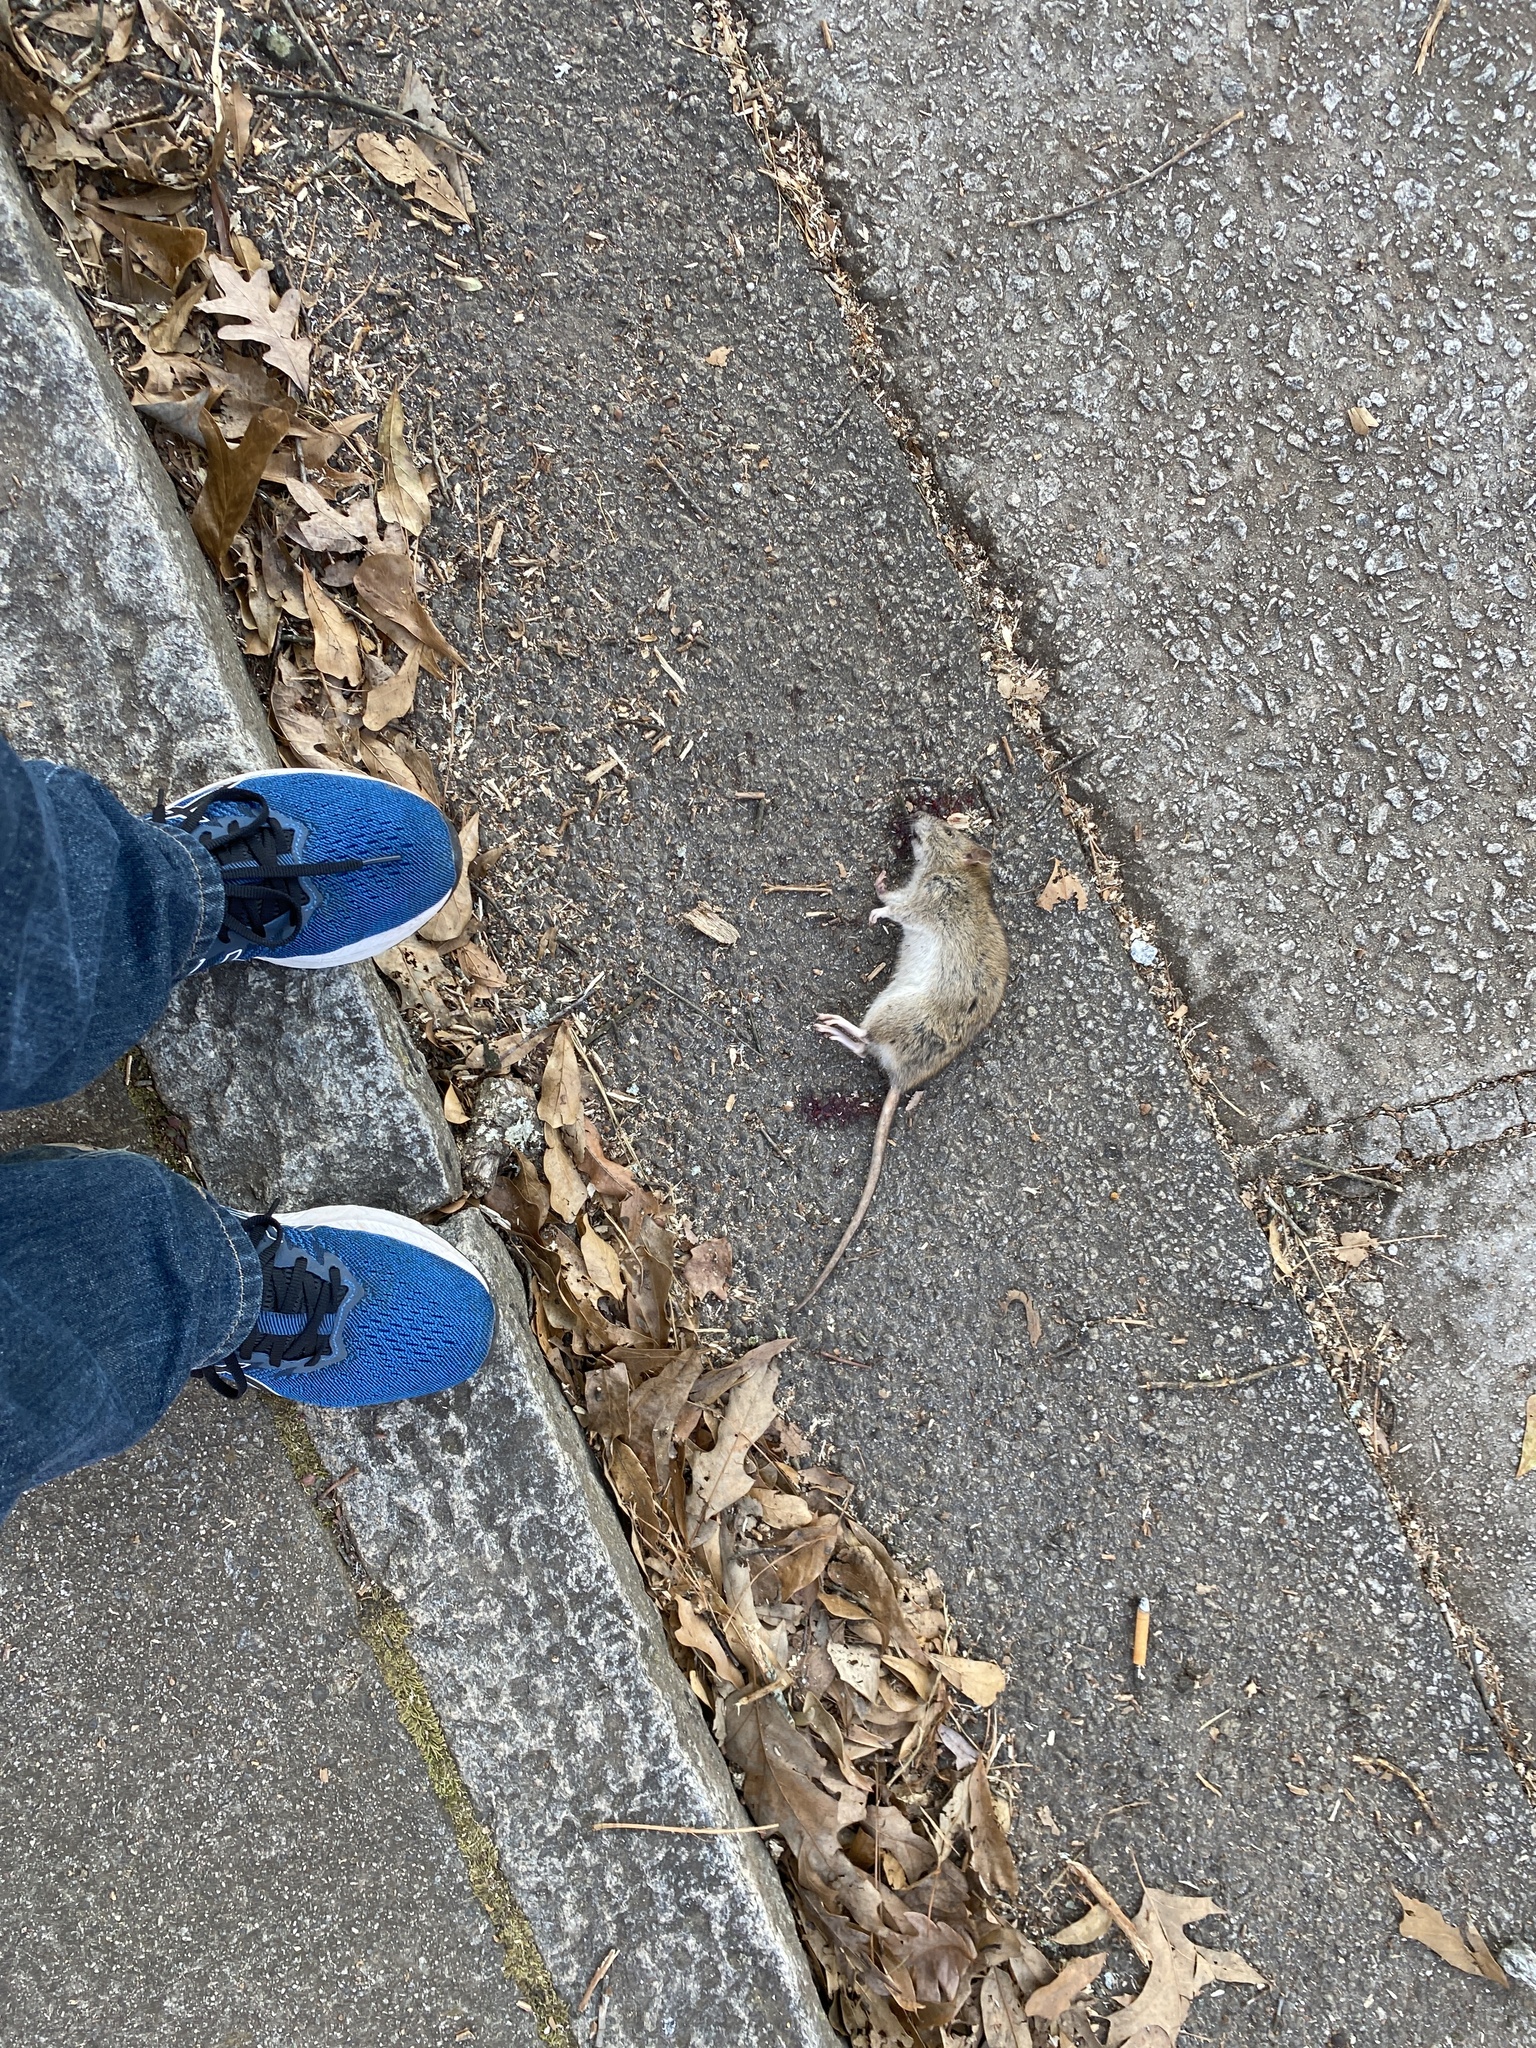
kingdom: Animalia
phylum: Chordata
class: Mammalia
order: Rodentia
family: Muridae
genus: Rattus
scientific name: Rattus norvegicus
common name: Brown rat
